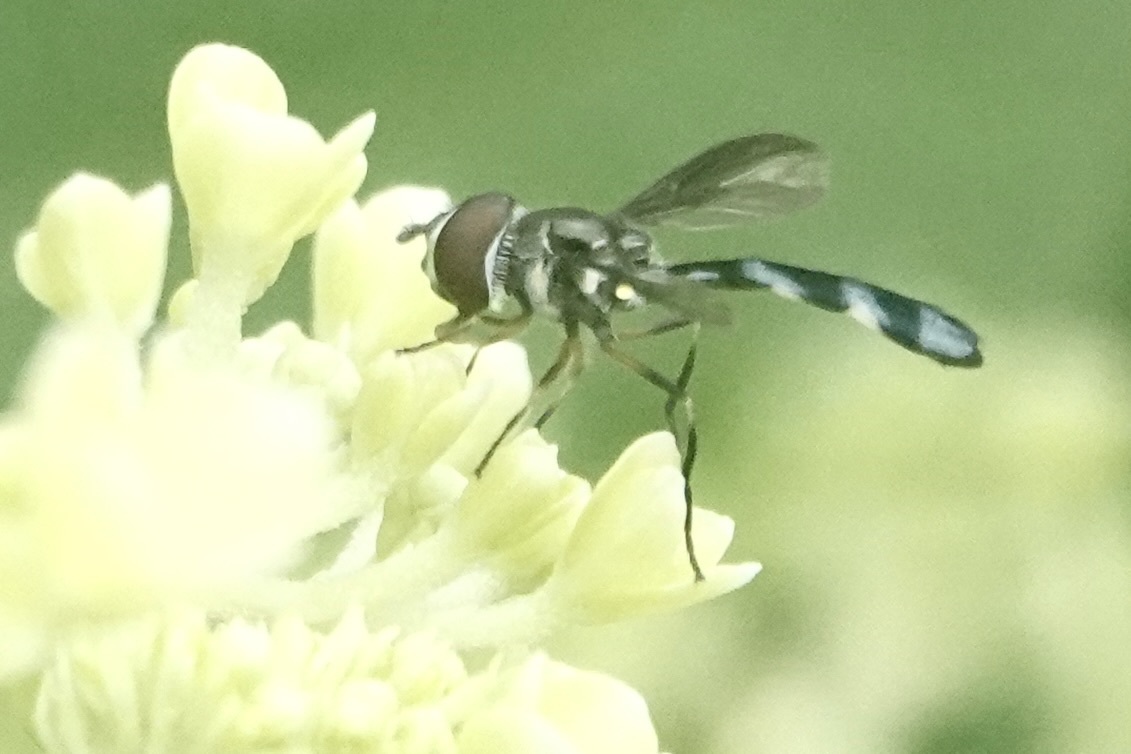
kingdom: Animalia
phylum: Arthropoda
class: Insecta
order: Diptera
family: Syrphidae
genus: Ocyptamus
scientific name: Ocyptamus costatus
